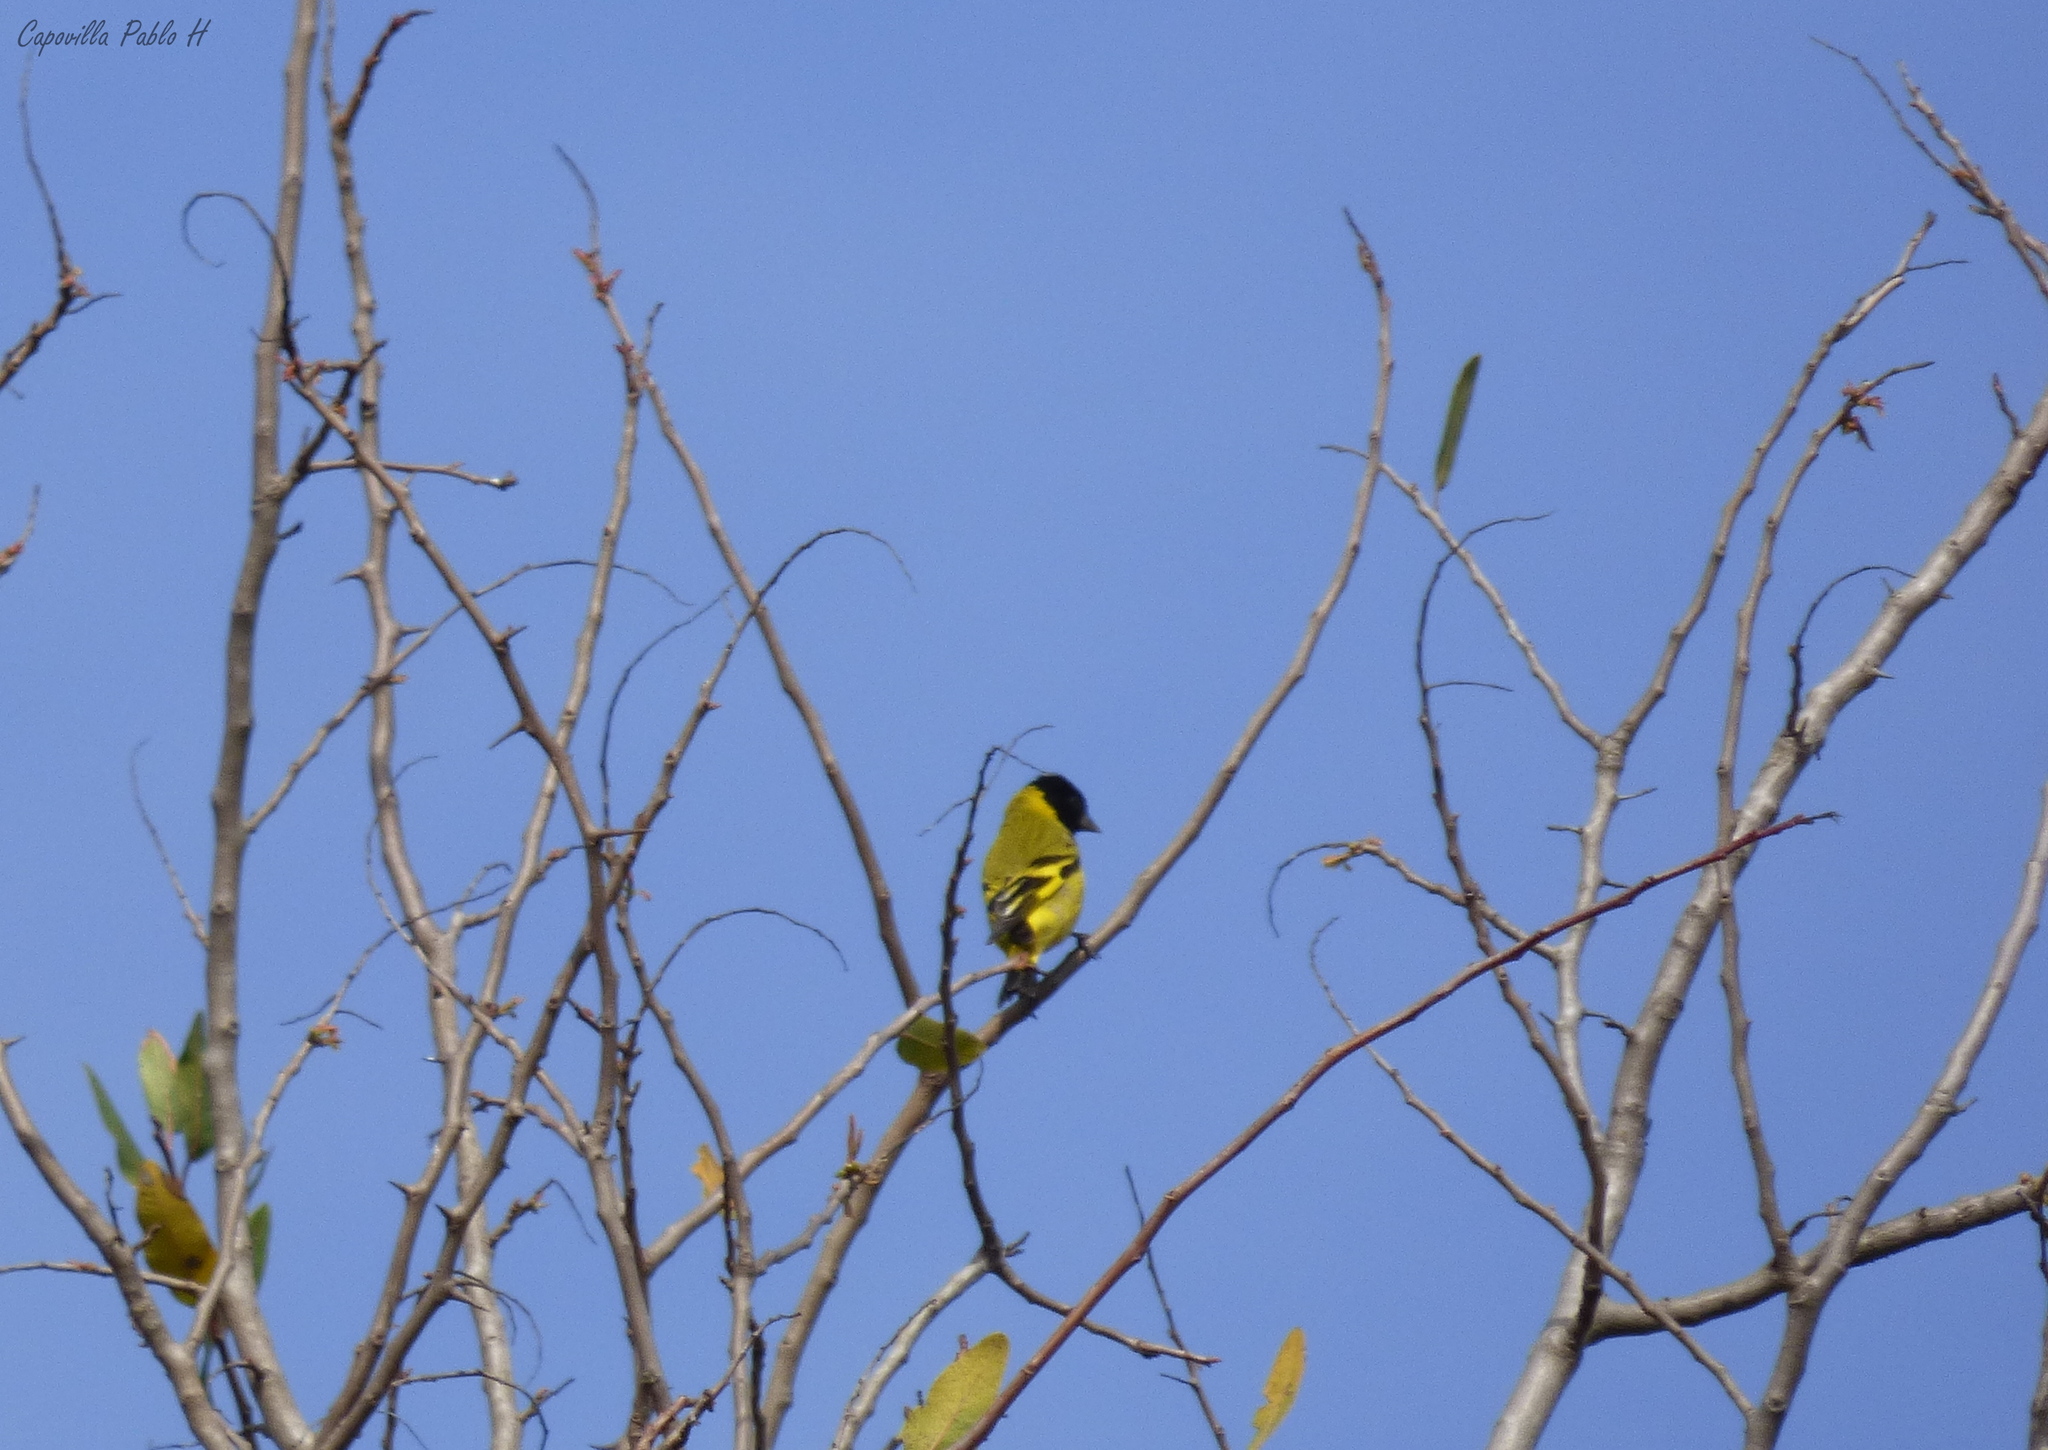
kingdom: Animalia
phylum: Chordata
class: Aves
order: Passeriformes
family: Fringillidae
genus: Spinus
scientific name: Spinus magellanicus
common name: Hooded siskin
